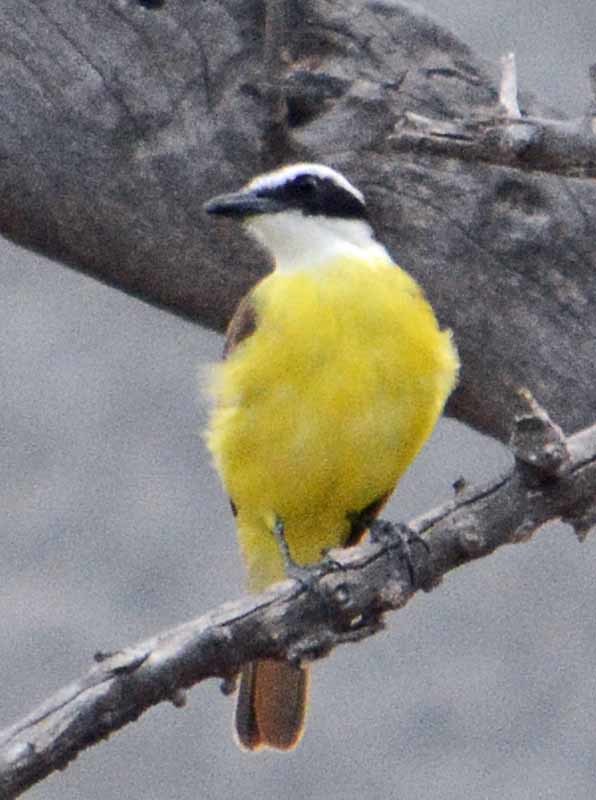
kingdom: Animalia
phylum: Chordata
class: Aves
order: Passeriformes
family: Tyrannidae
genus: Pitangus
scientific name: Pitangus sulphuratus
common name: Great kiskadee
